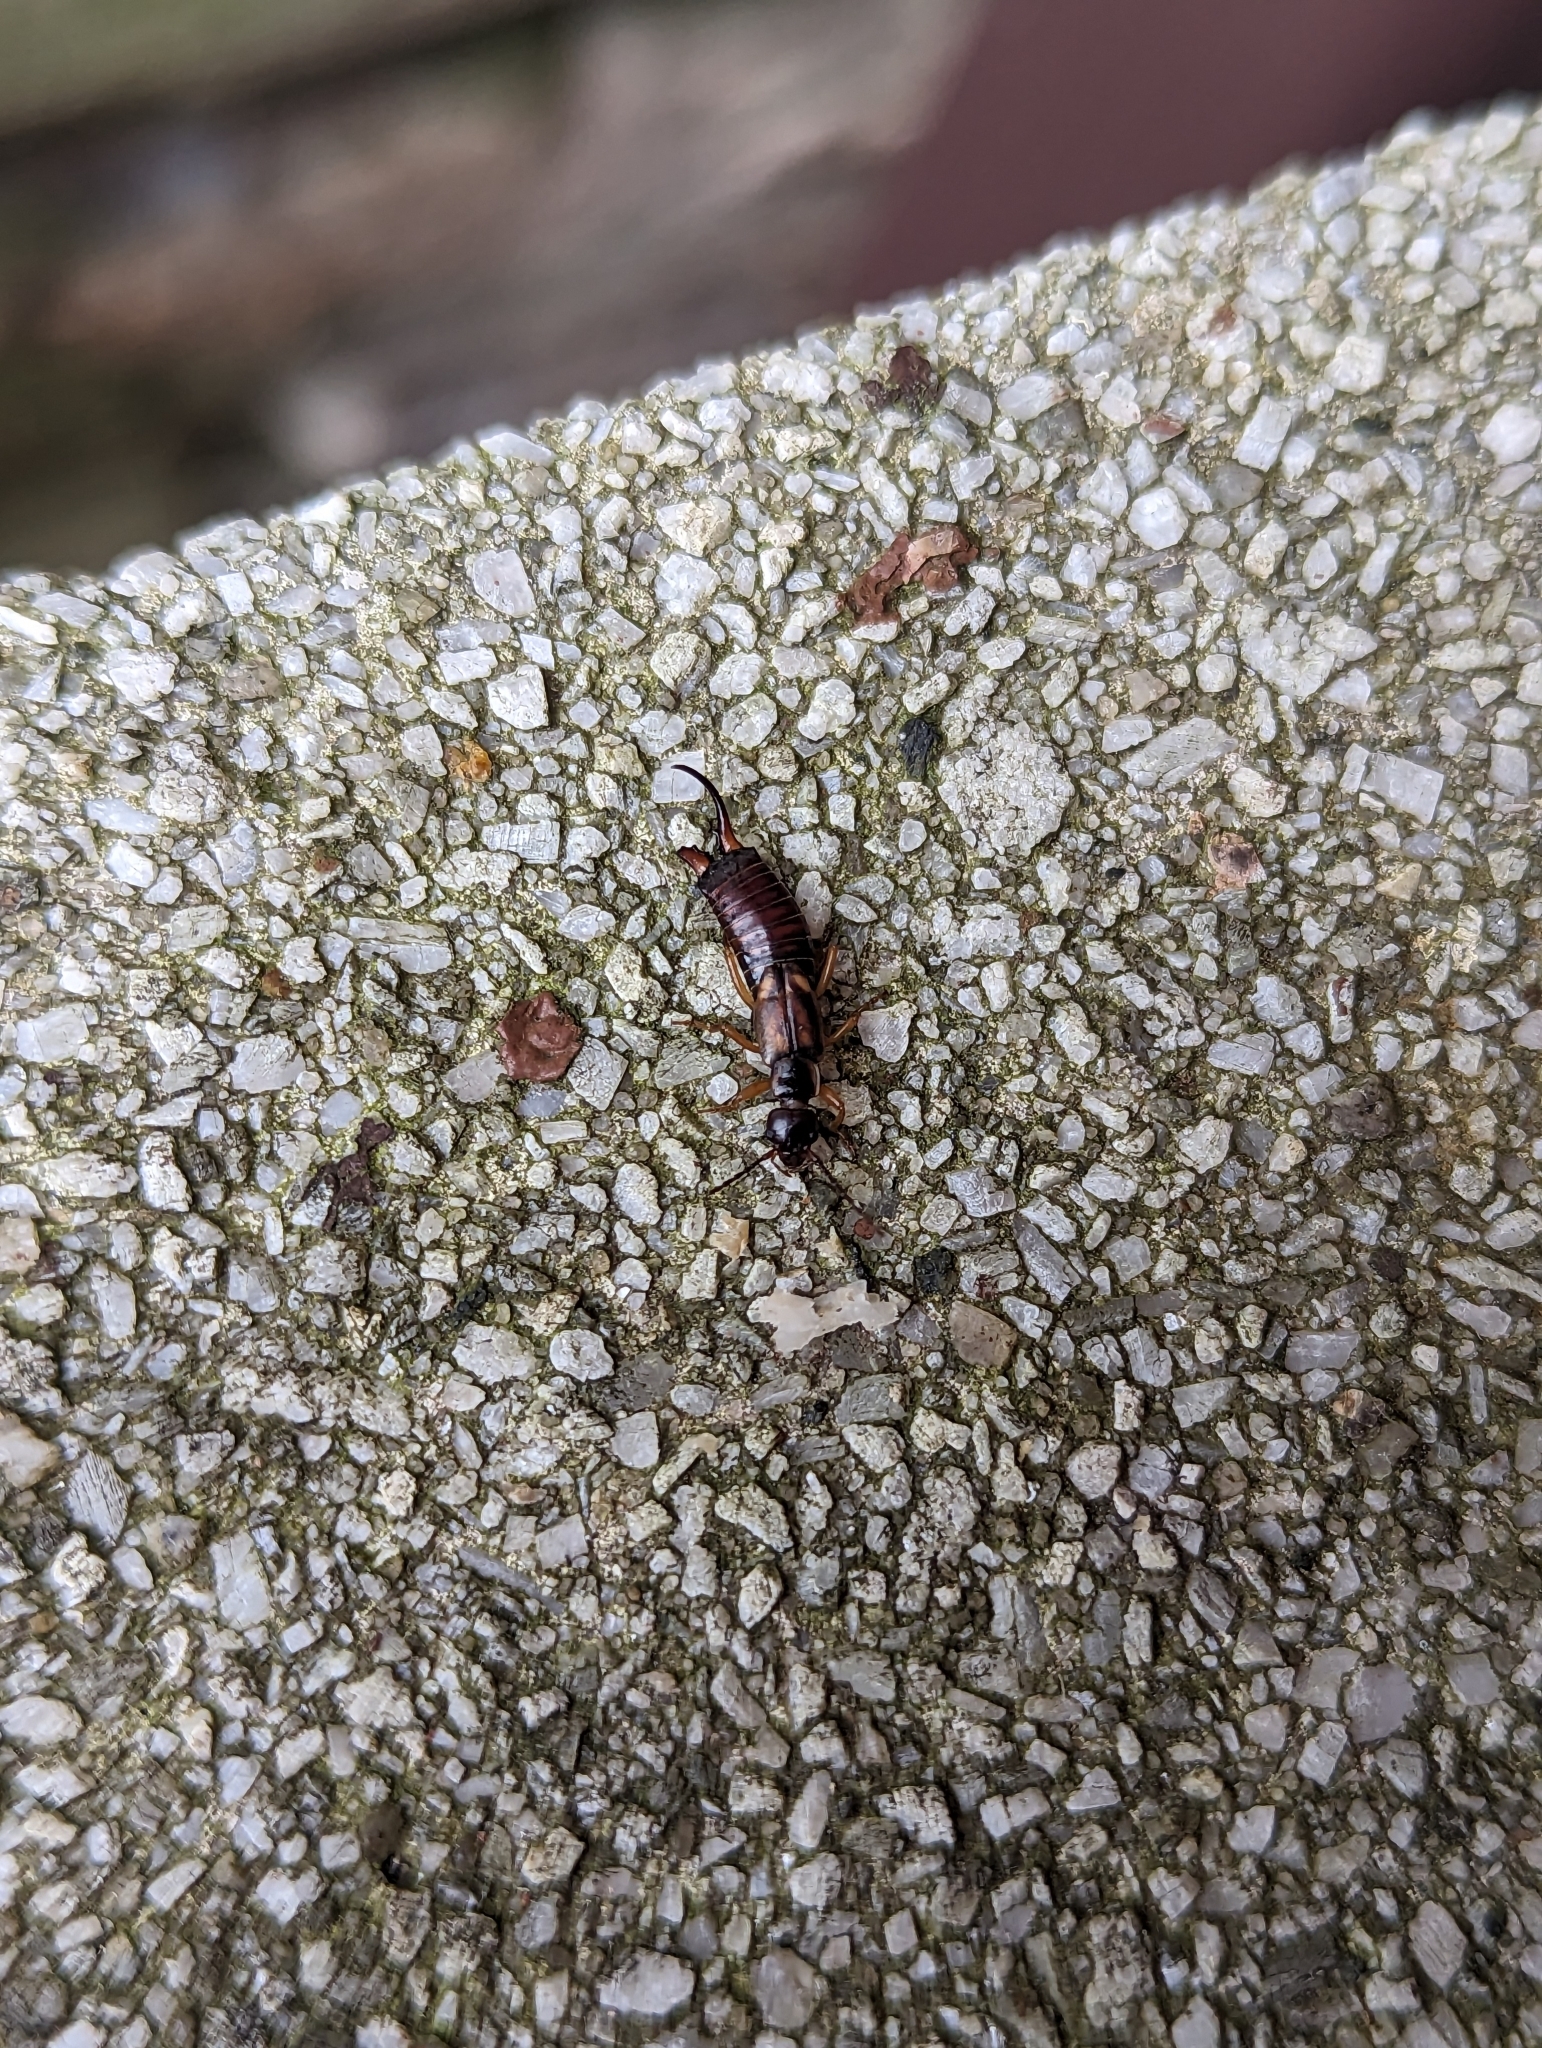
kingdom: Animalia
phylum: Arthropoda
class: Insecta
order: Dermaptera
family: Forficulidae
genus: Forficula
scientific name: Forficula auricularia
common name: European earwig
